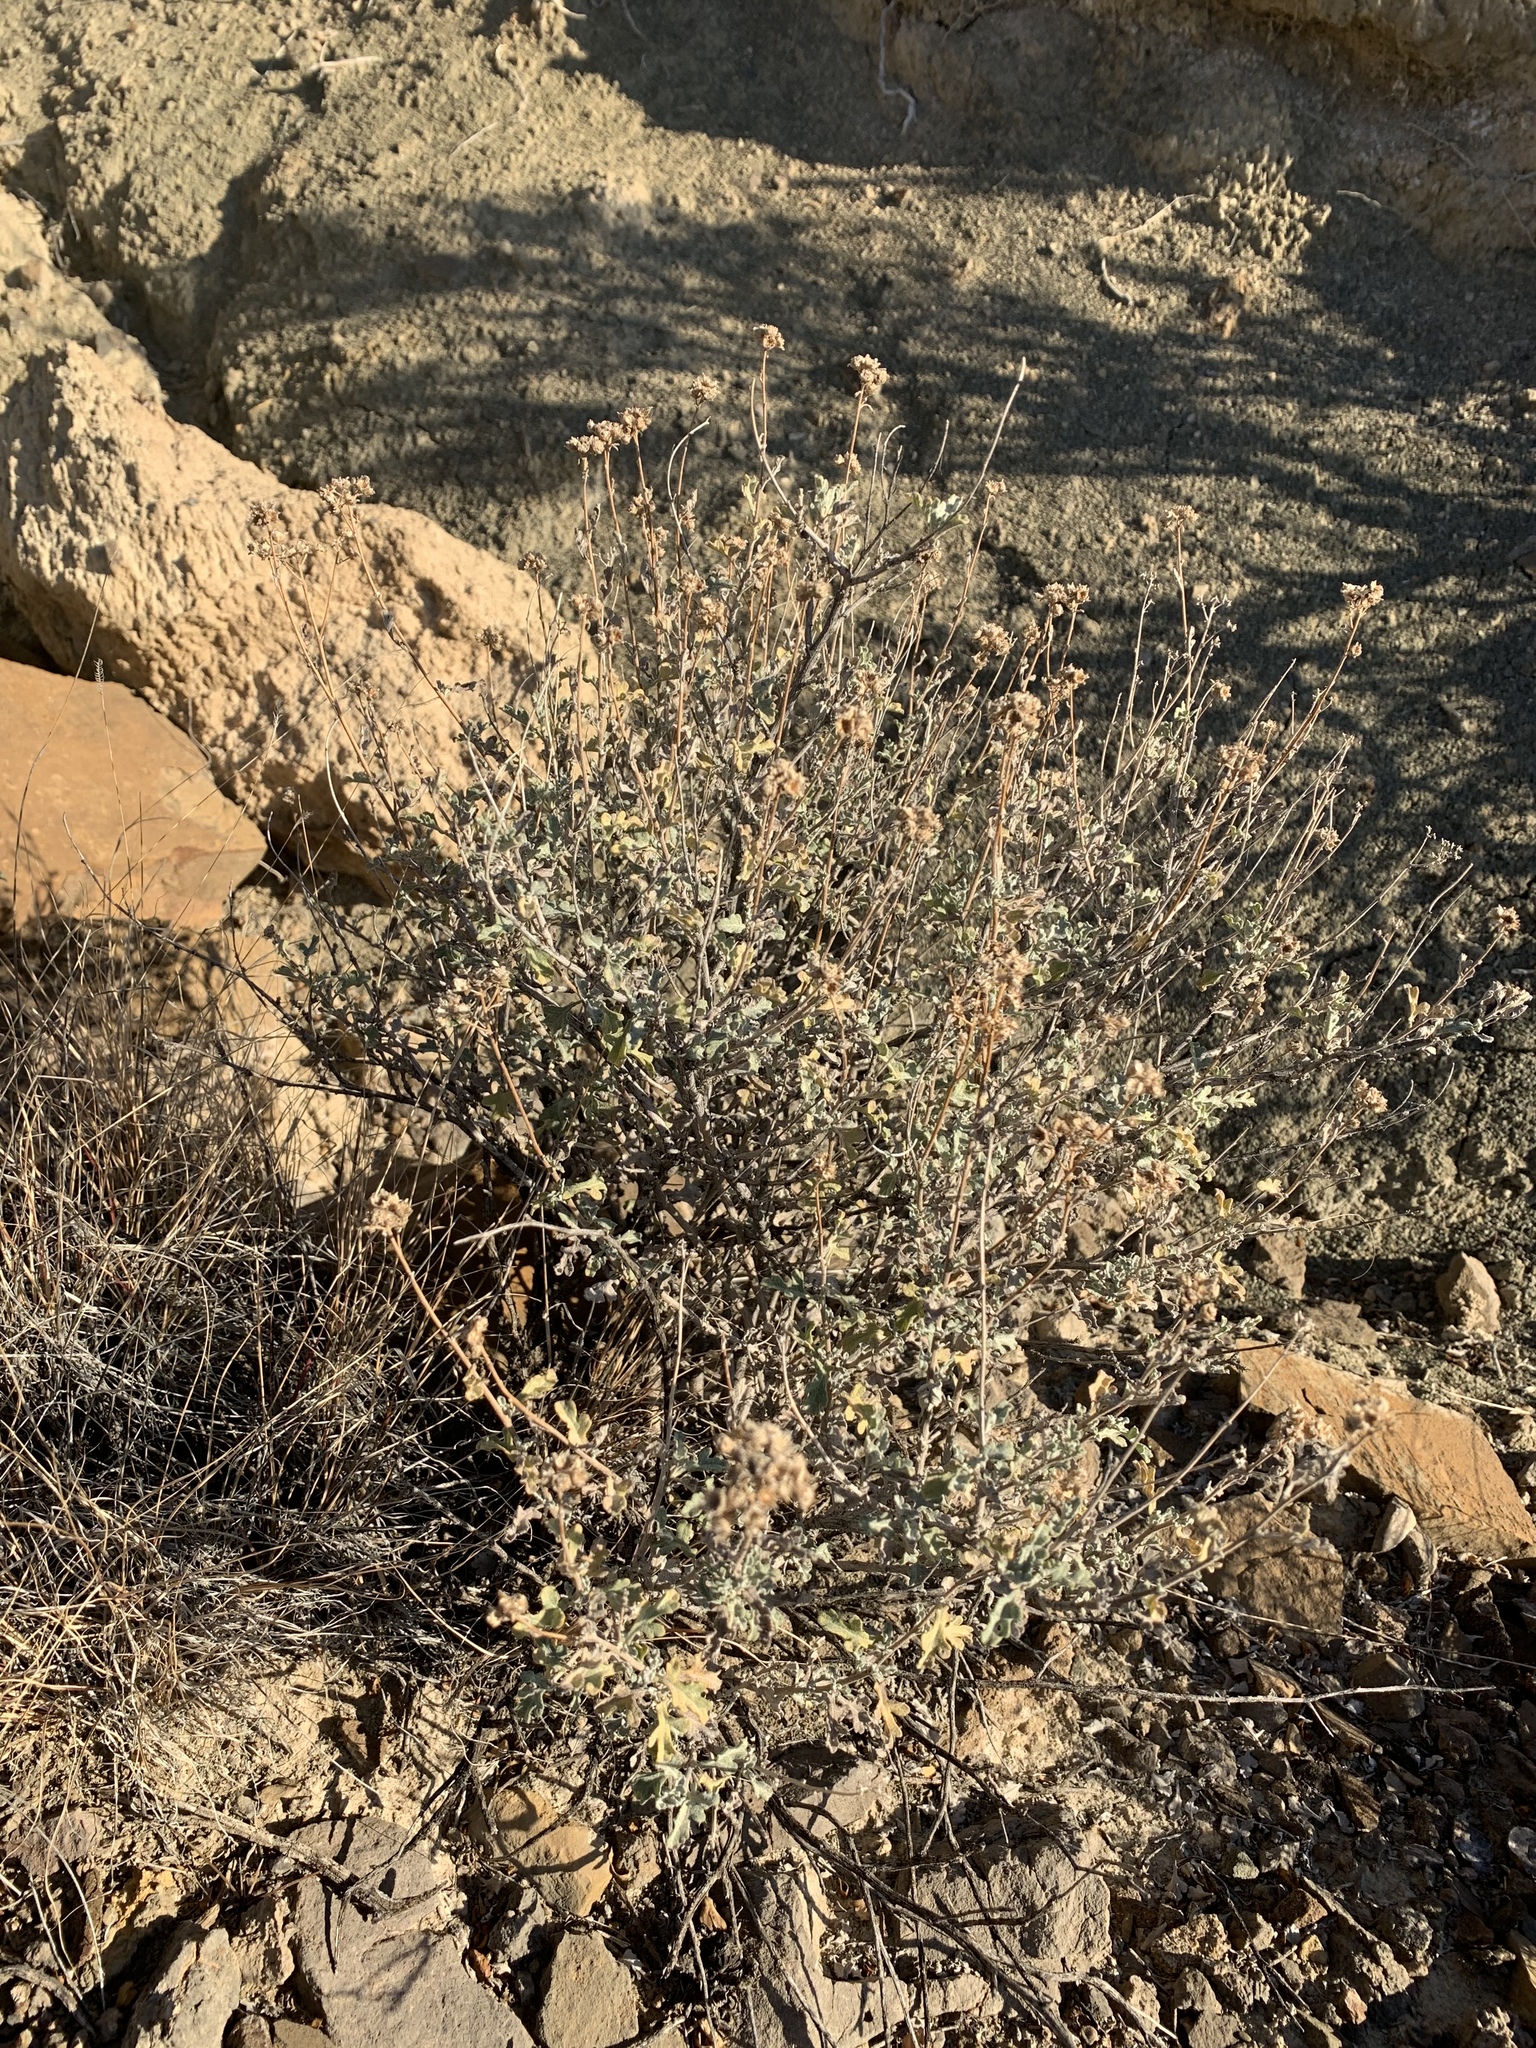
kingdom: Plantae
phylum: Tracheophyta
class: Magnoliopsida
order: Asterales
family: Asteraceae
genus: Parthenium
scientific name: Parthenium incanum
